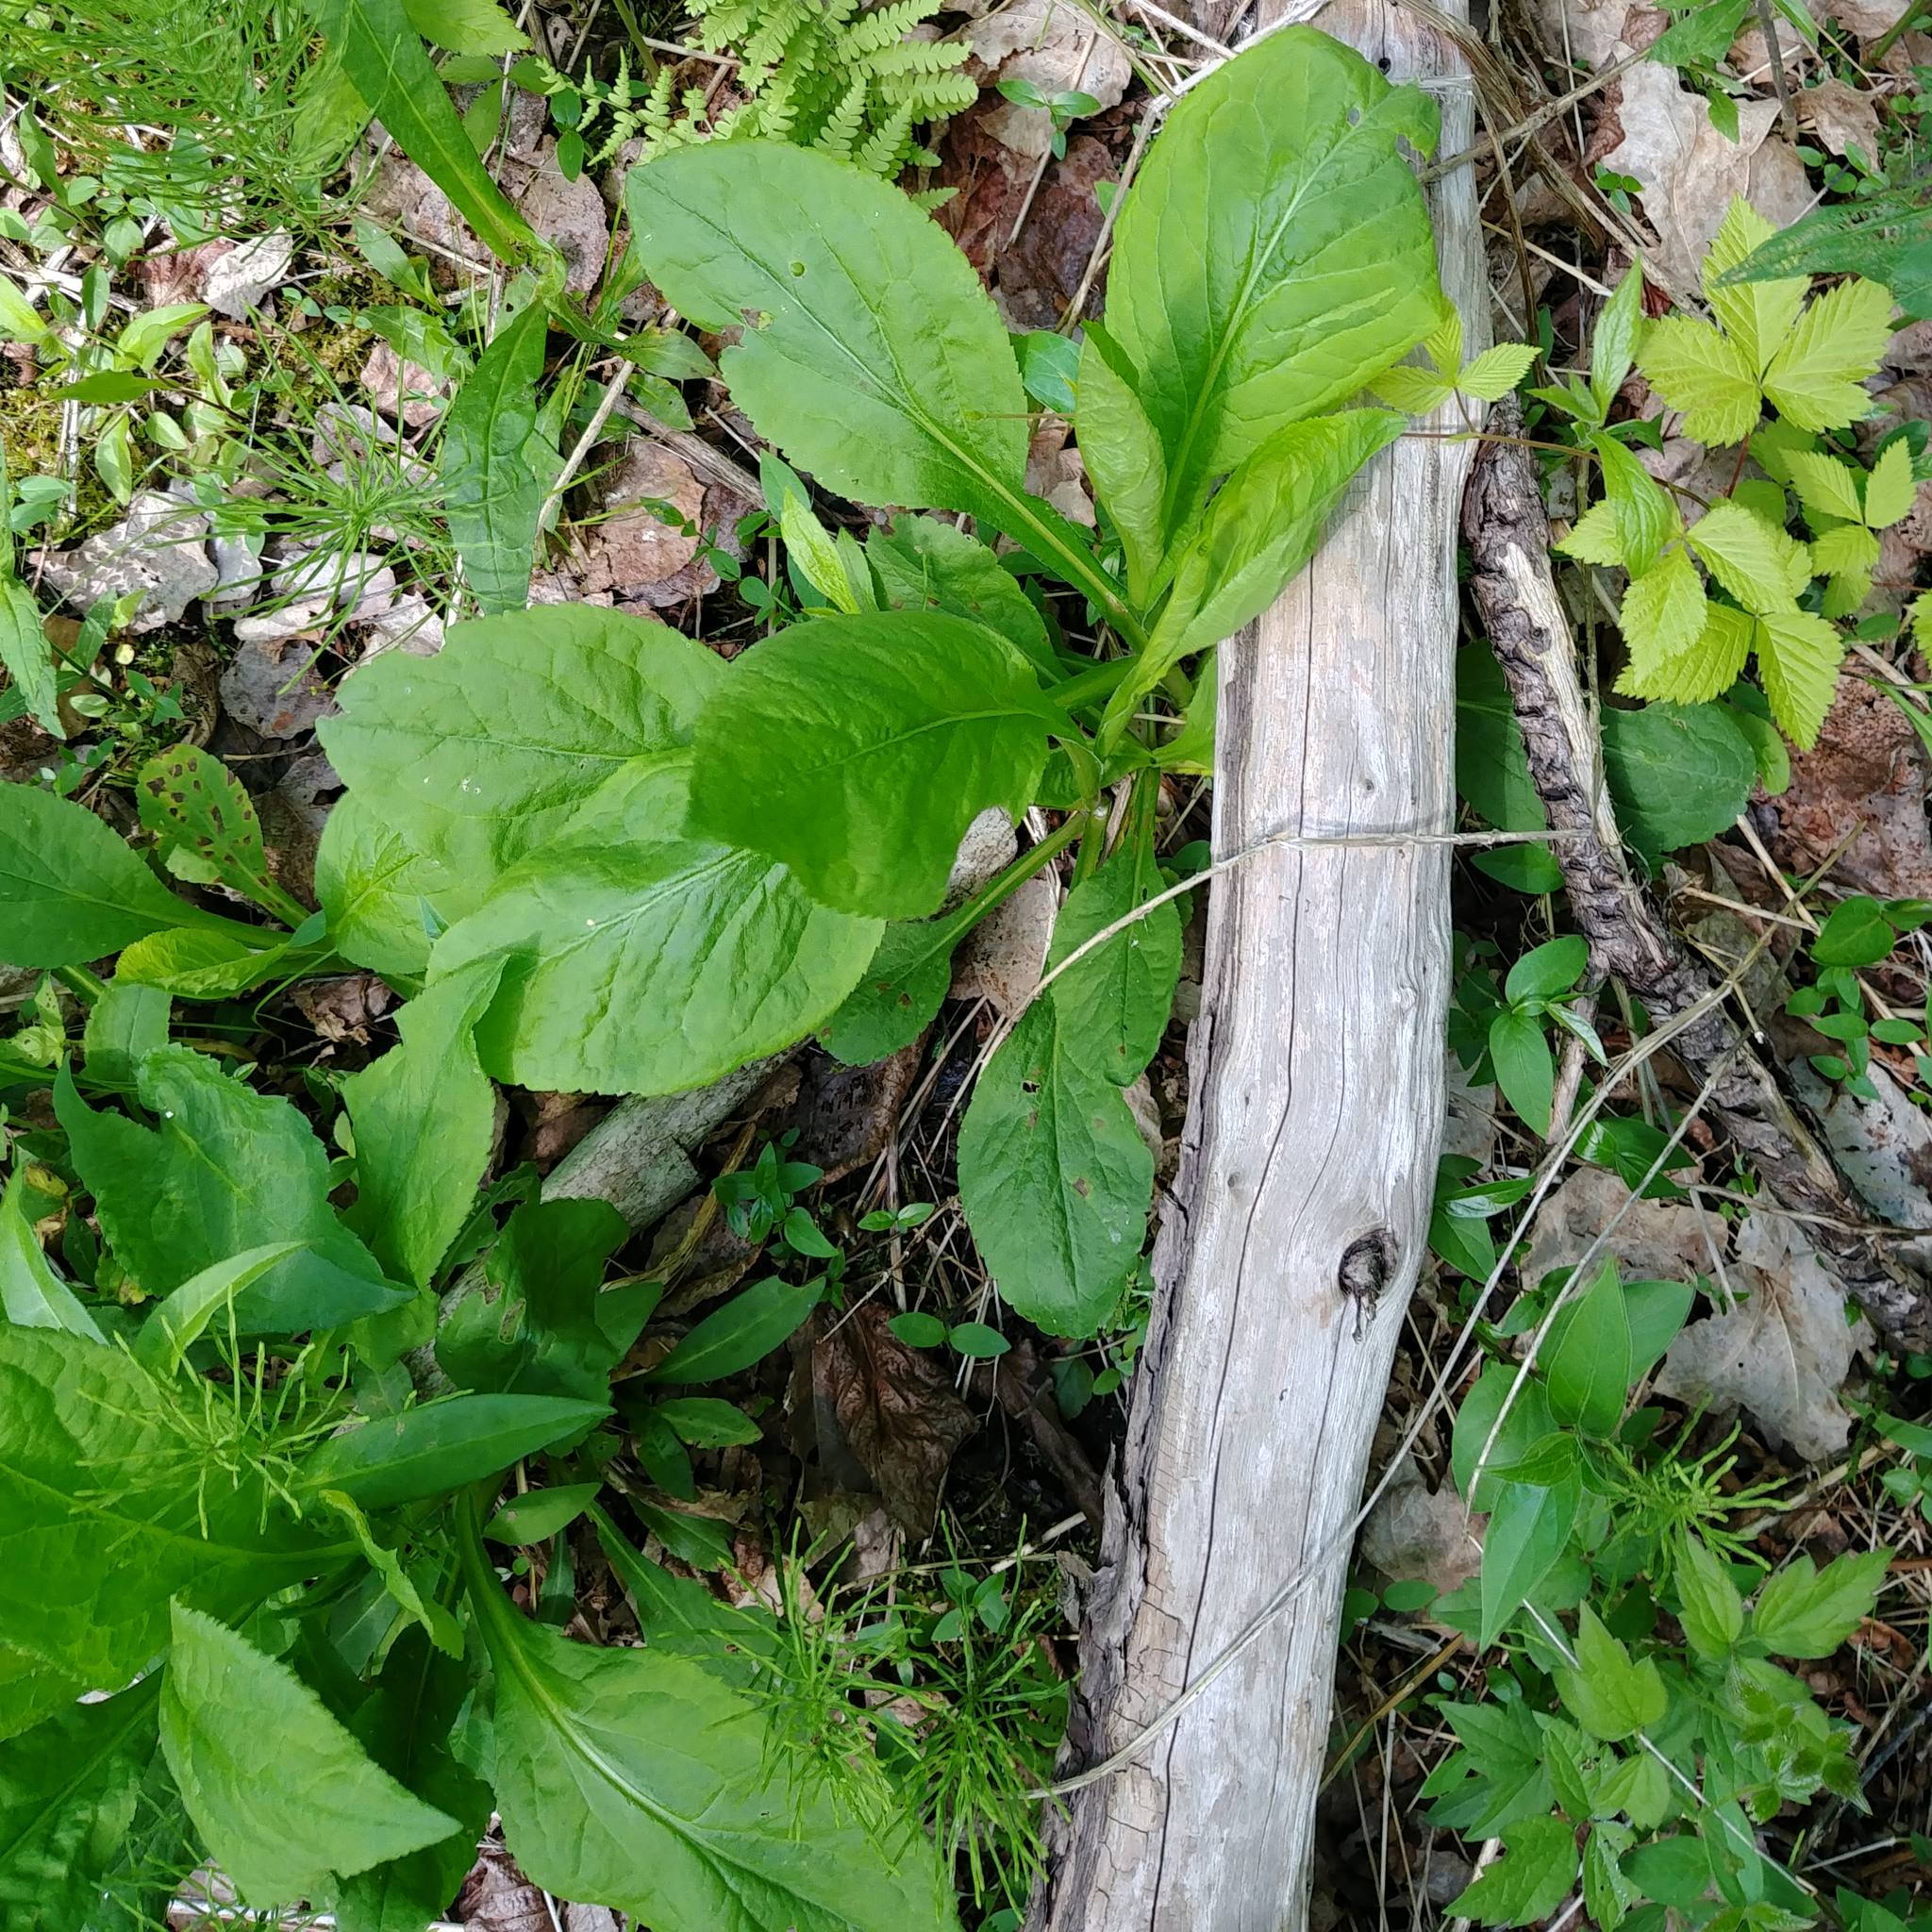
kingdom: Plantae
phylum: Tracheophyta
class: Magnoliopsida
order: Asterales
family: Asteraceae
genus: Solidago
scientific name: Solidago patula
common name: Rough-leaf goldenrod
